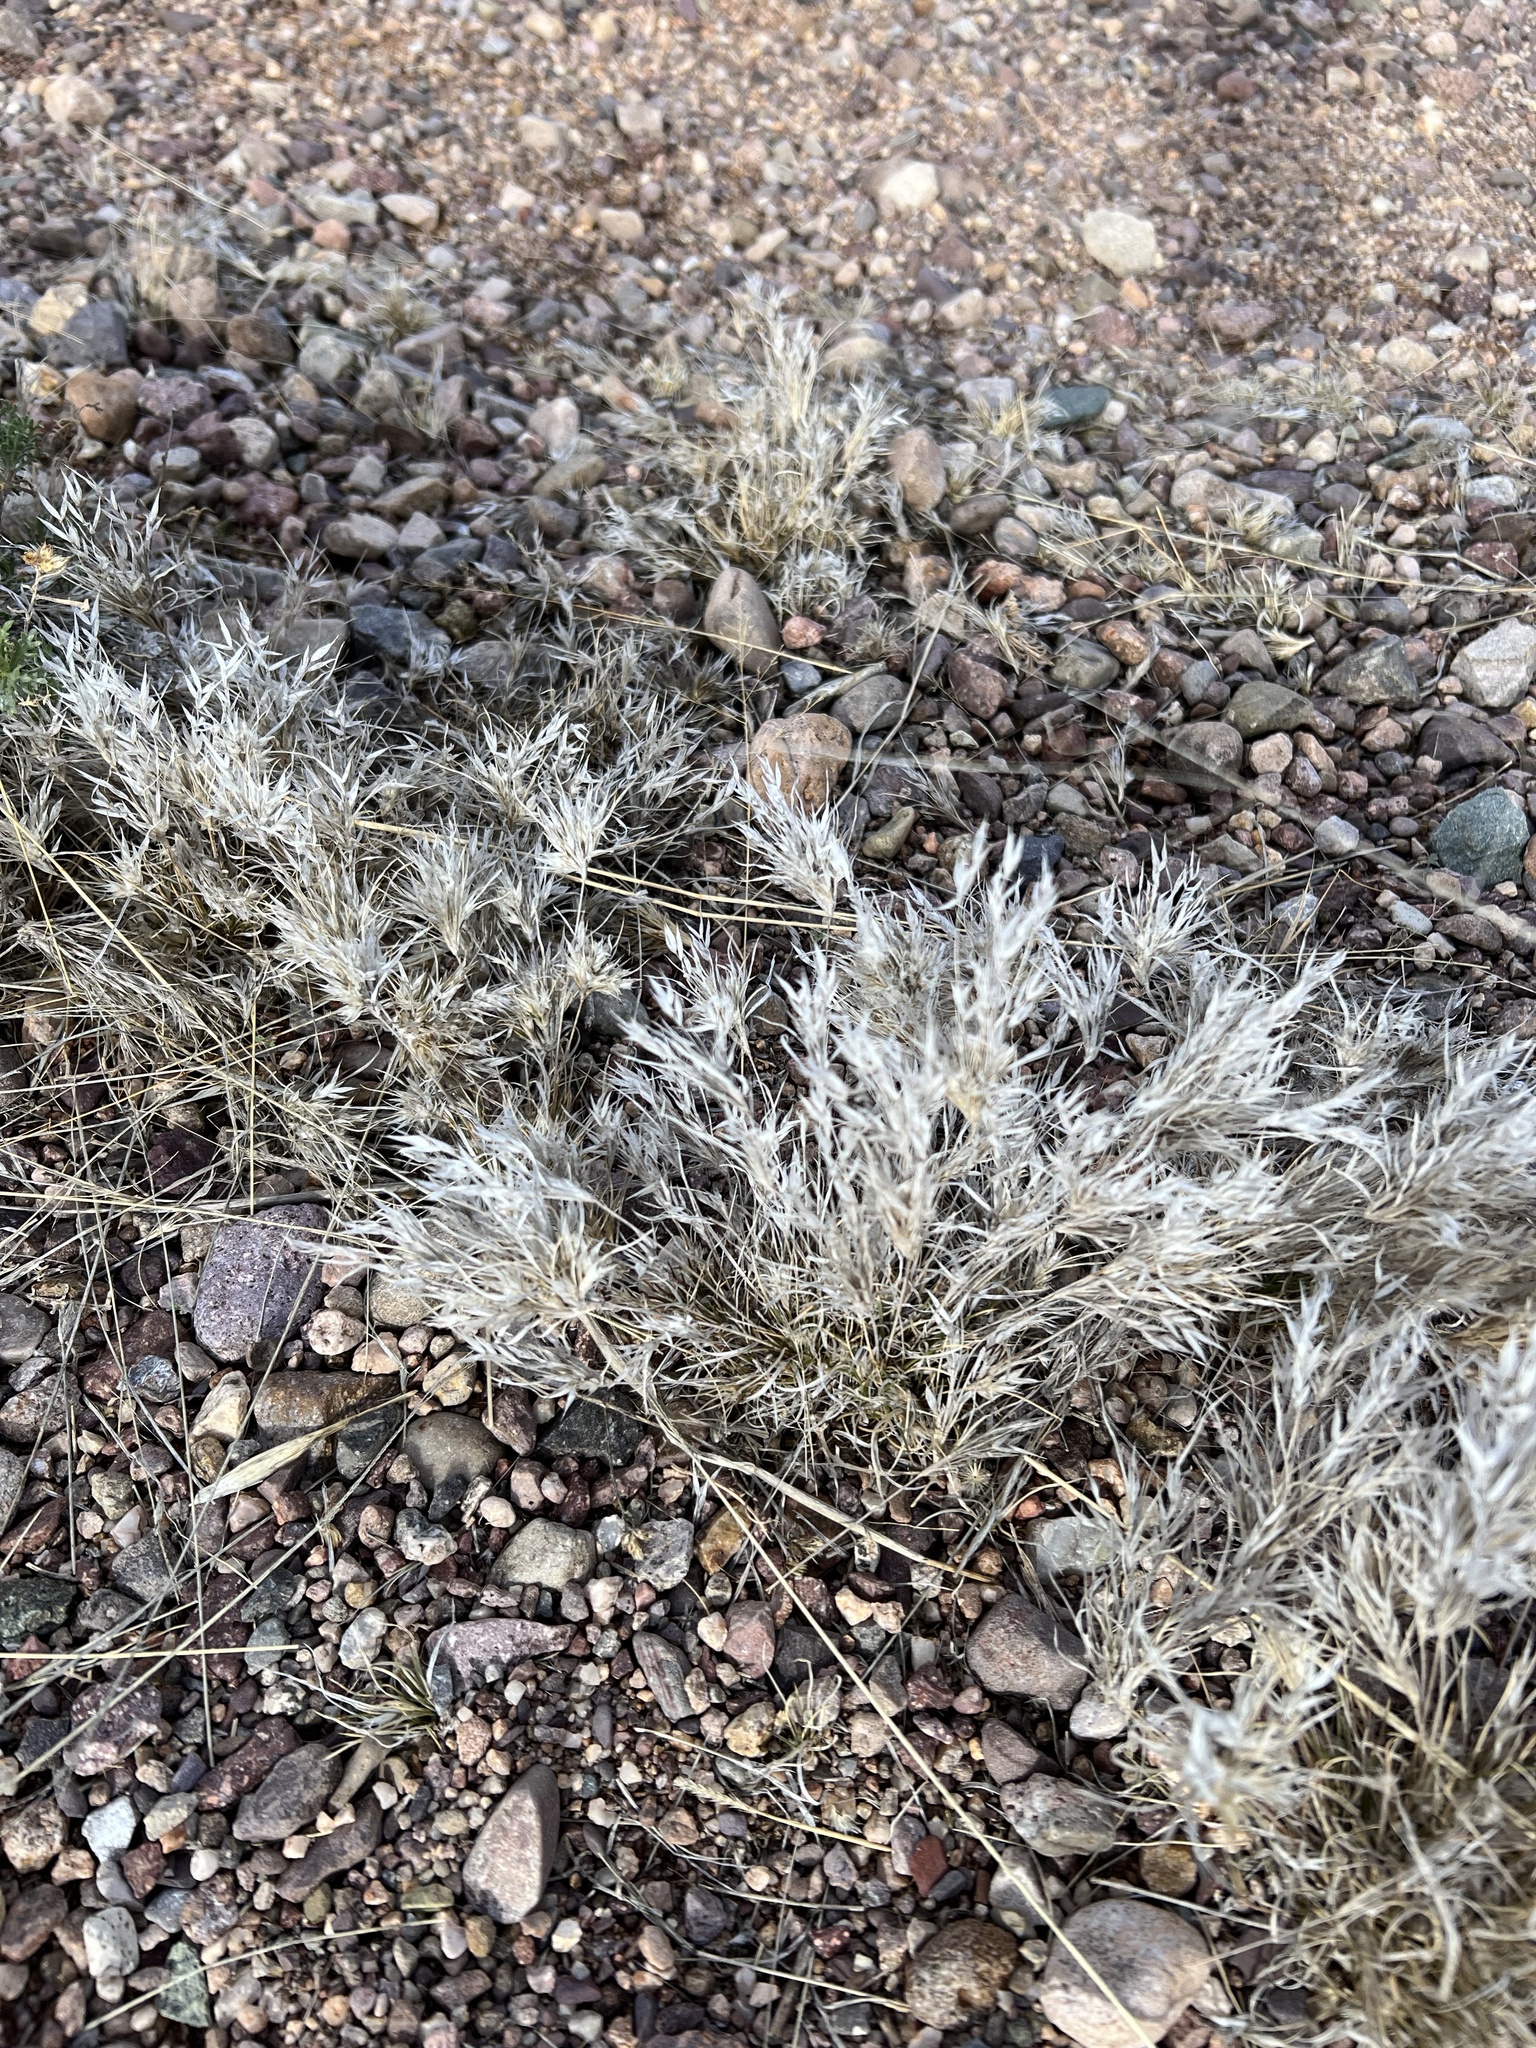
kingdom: Plantae
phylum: Tracheophyta
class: Liliopsida
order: Poales
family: Poaceae
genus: Dasyochloa
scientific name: Dasyochloa pulchella
